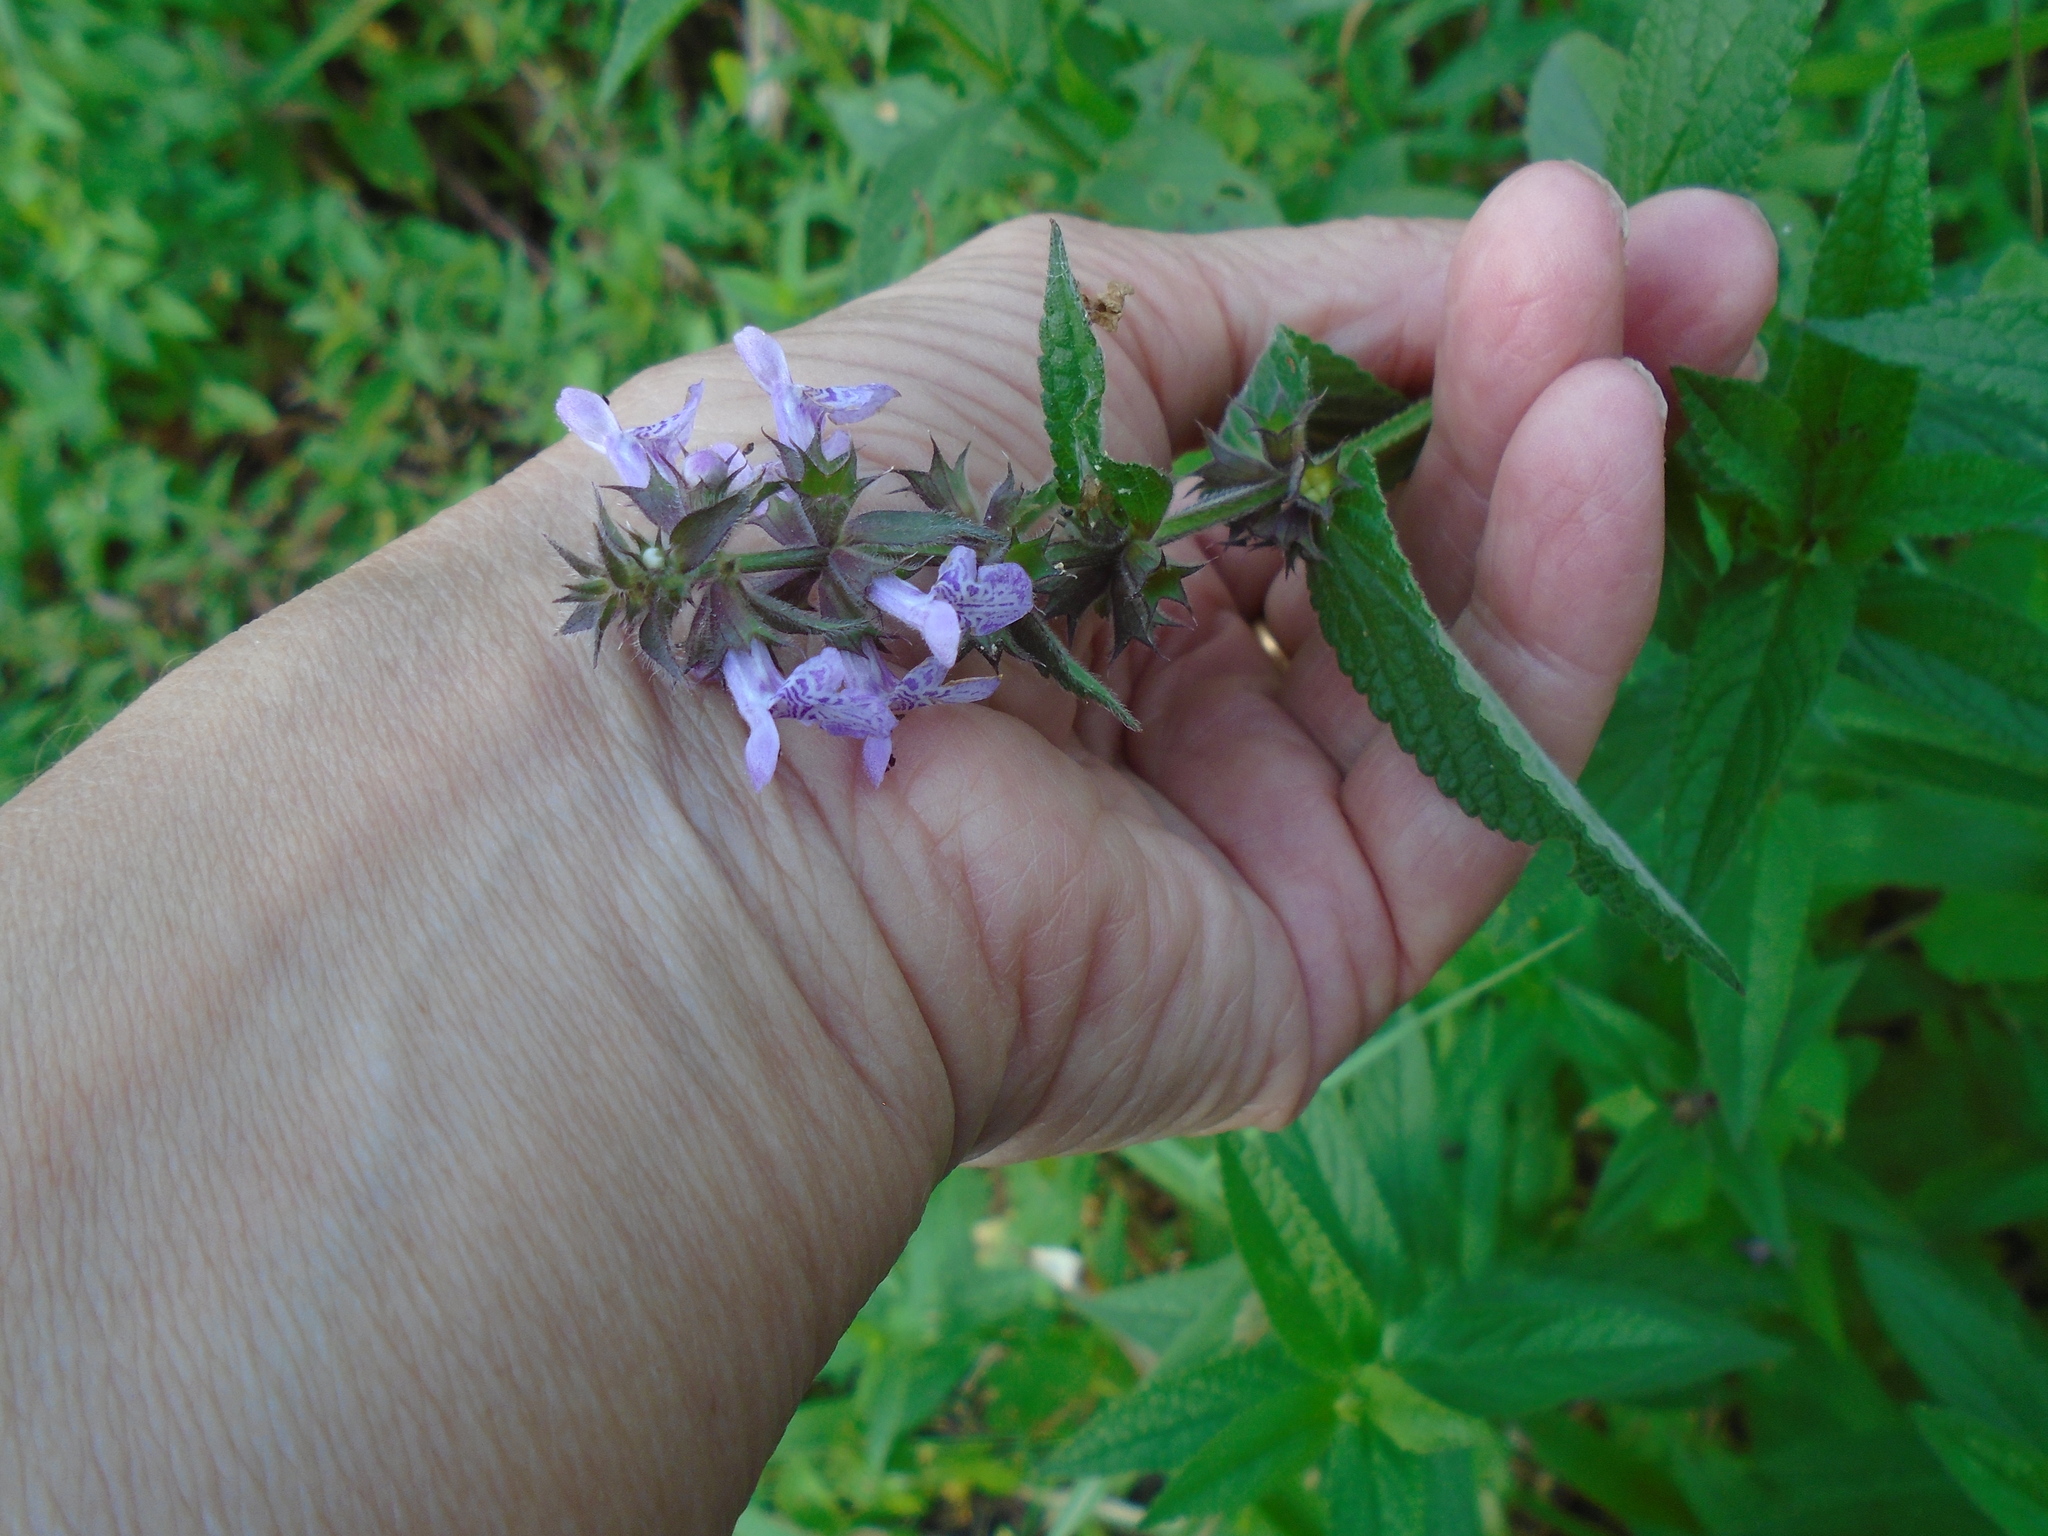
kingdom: Plantae
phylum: Tracheophyta
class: Magnoliopsida
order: Lamiales
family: Lamiaceae
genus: Stachys
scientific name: Stachys palustris
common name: Marsh woundwort
